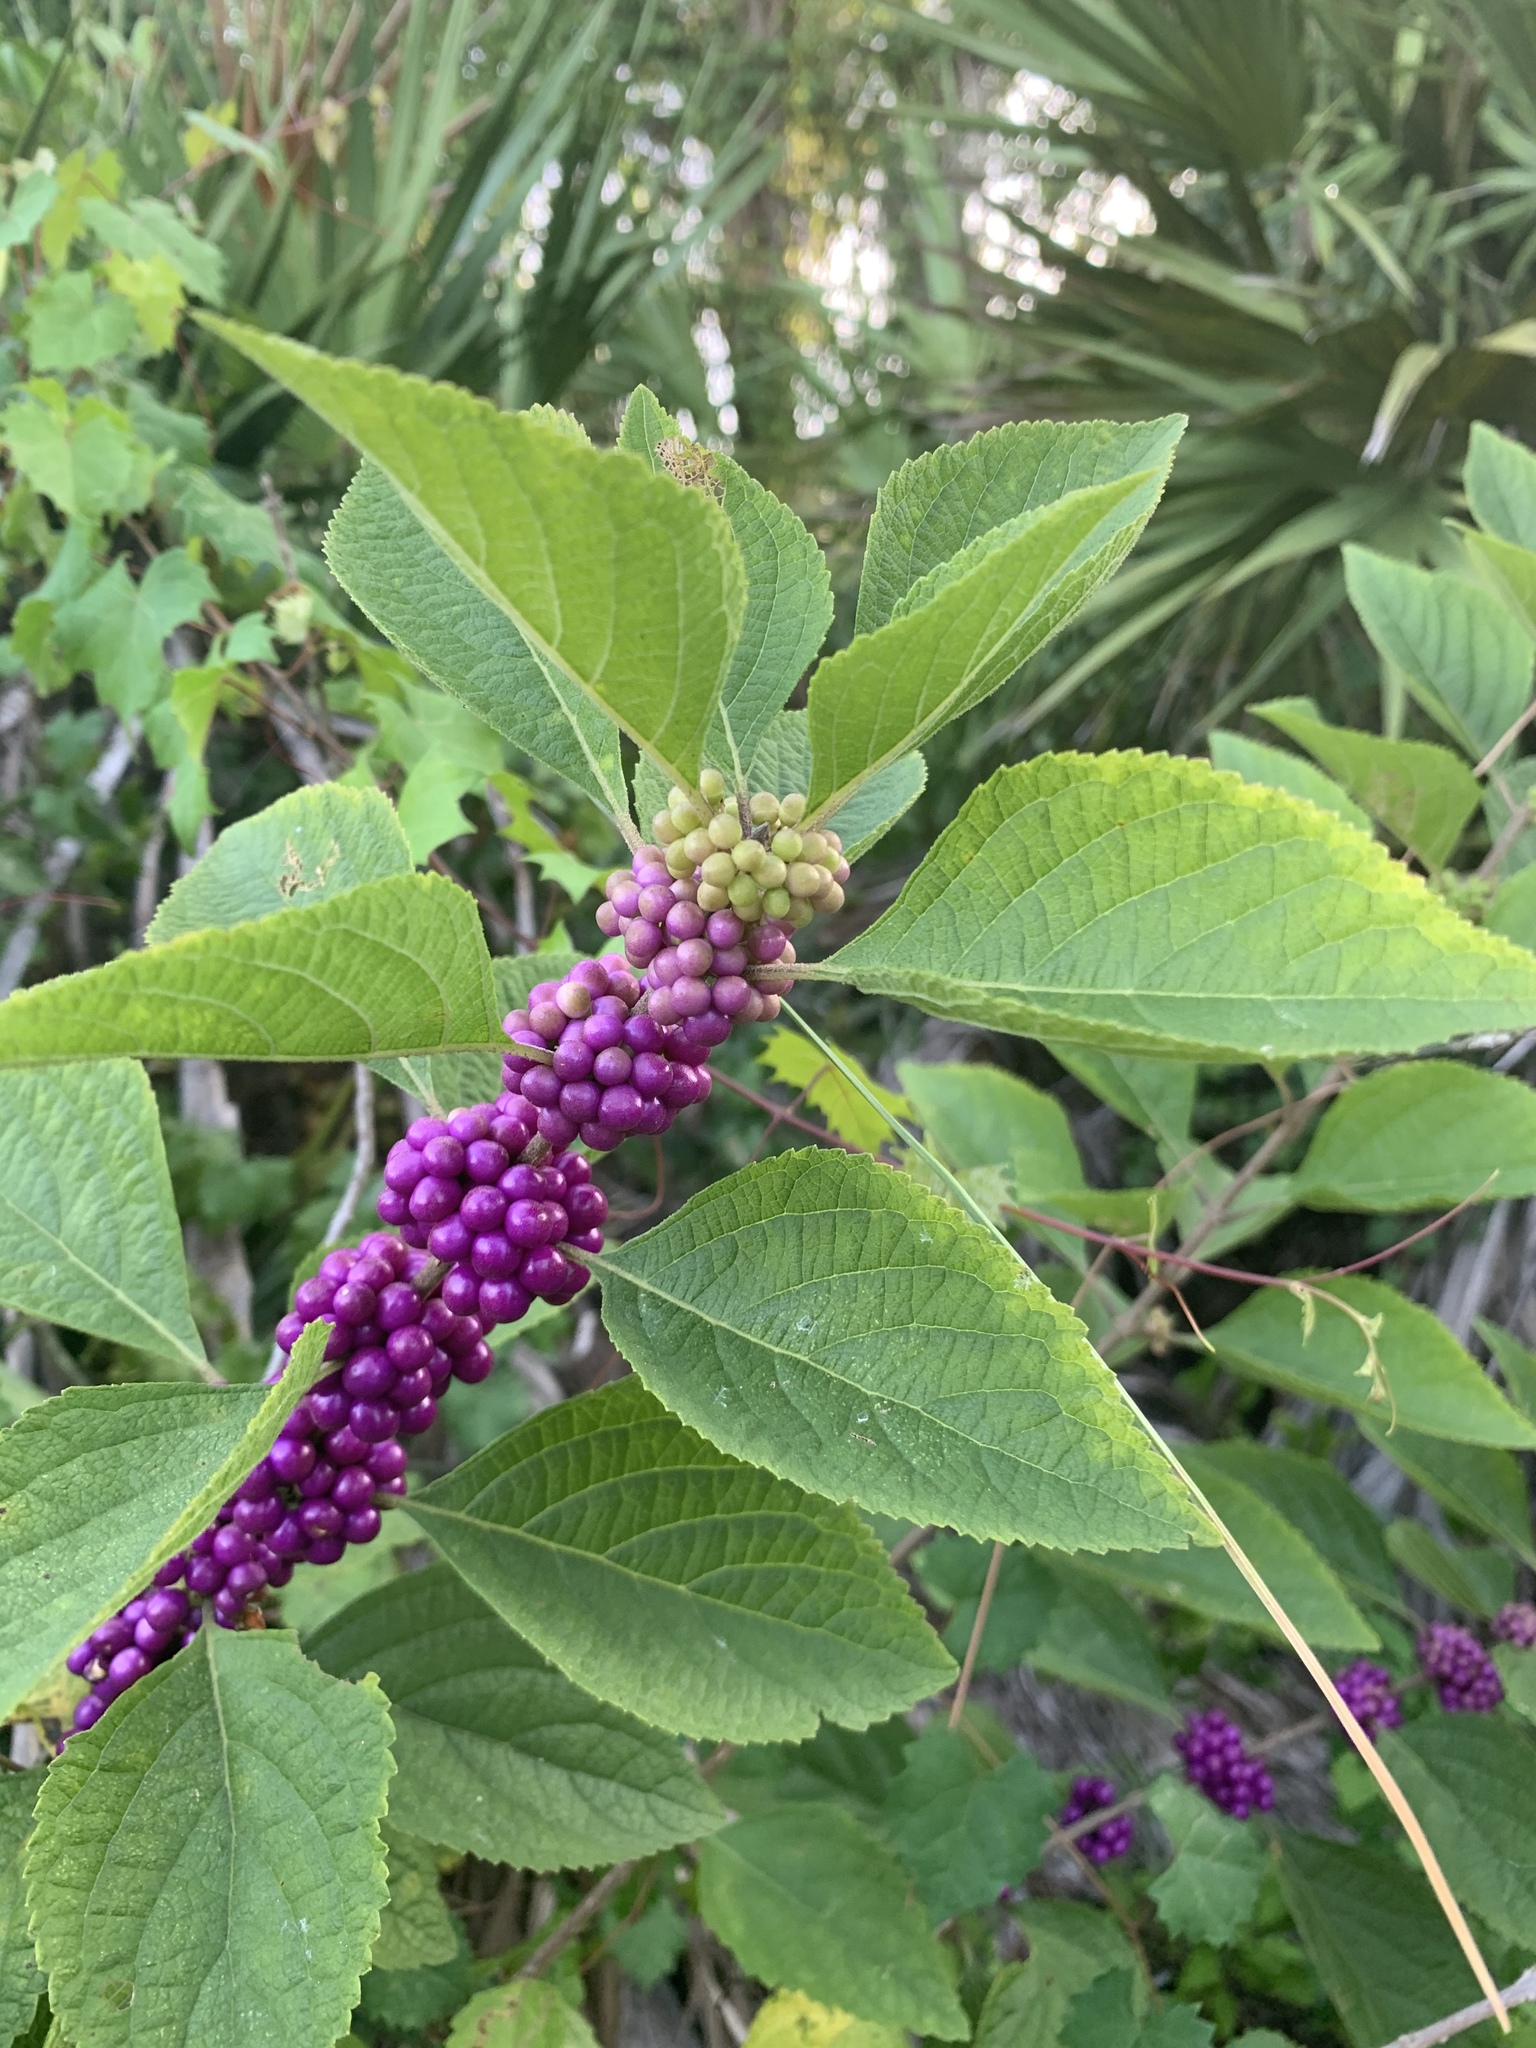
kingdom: Plantae
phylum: Tracheophyta
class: Magnoliopsida
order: Lamiales
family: Lamiaceae
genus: Callicarpa
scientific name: Callicarpa americana
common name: American beautyberry
